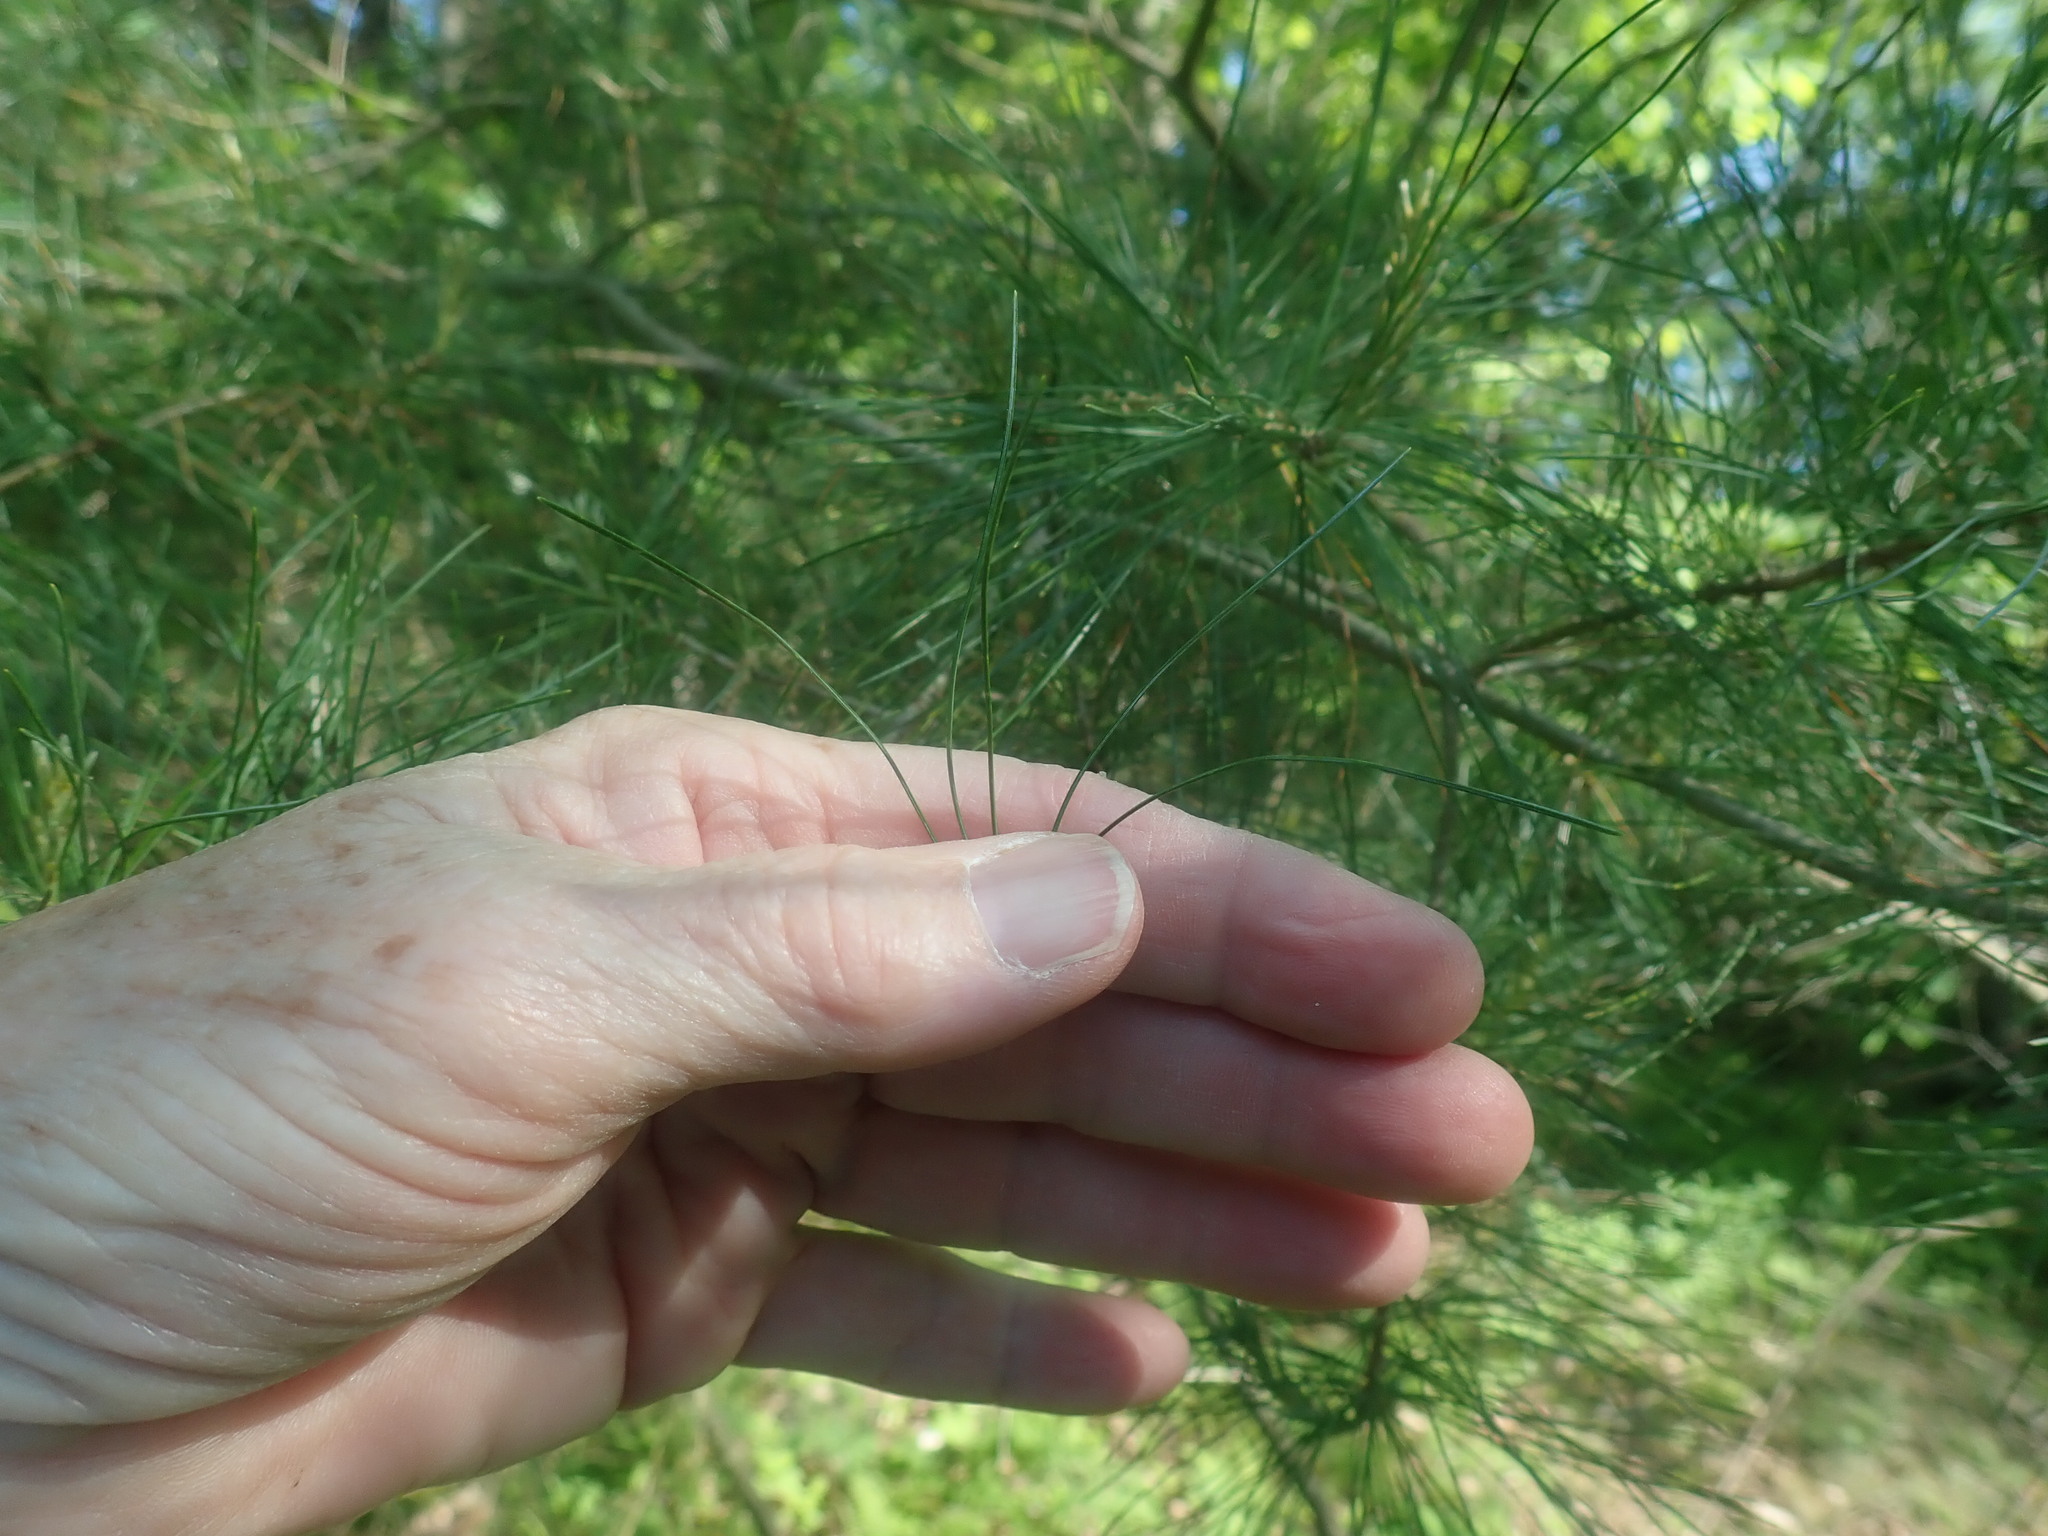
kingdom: Plantae
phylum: Tracheophyta
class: Pinopsida
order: Pinales
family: Pinaceae
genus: Pinus
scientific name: Pinus strobus
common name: Weymouth pine
